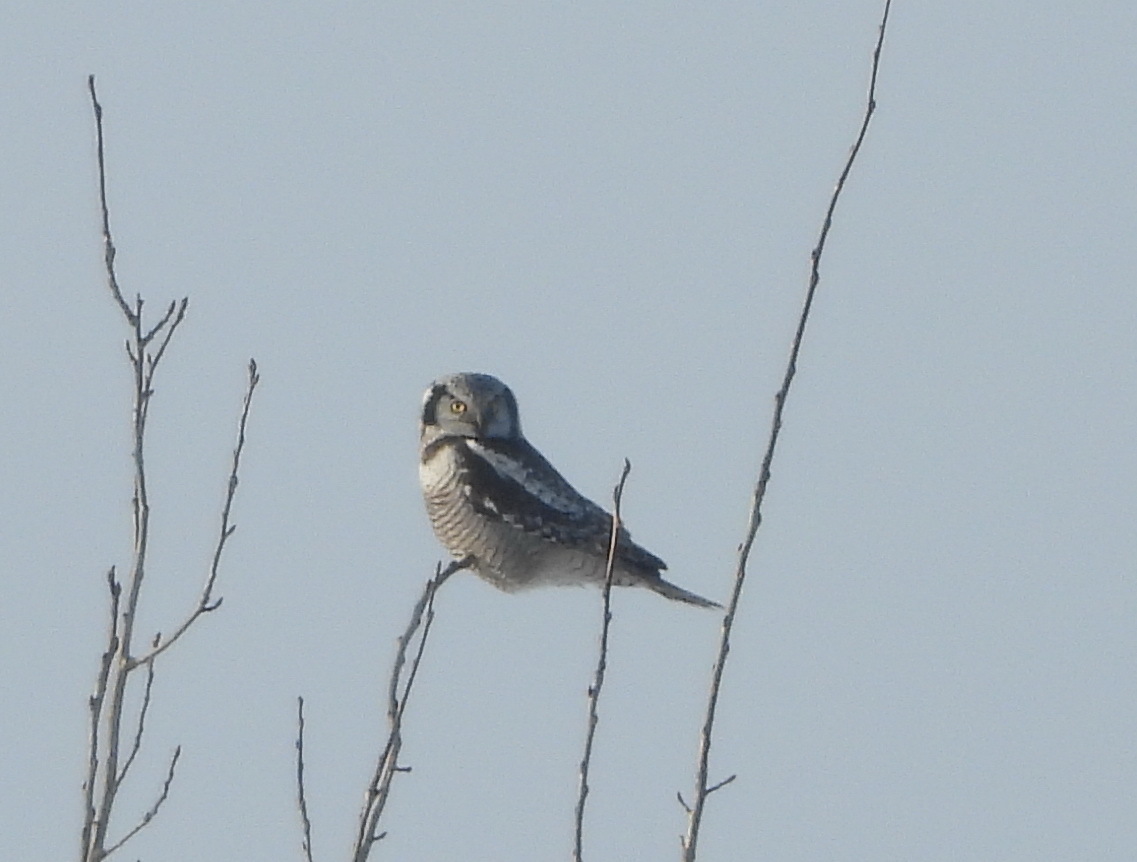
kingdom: Animalia
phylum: Chordata
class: Aves
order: Strigiformes
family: Strigidae
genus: Surnia
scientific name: Surnia ulula
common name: Northern hawk-owl
